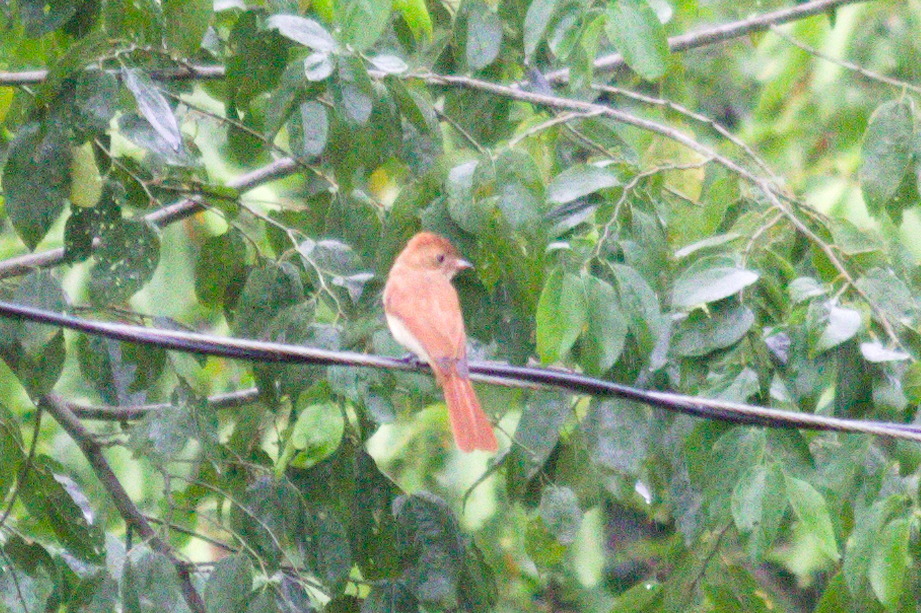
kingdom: Animalia
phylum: Chordata
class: Aves
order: Passeriformes
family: Tyrannidae
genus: Casiornis
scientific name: Casiornis rufus
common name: Rufous casiornis
